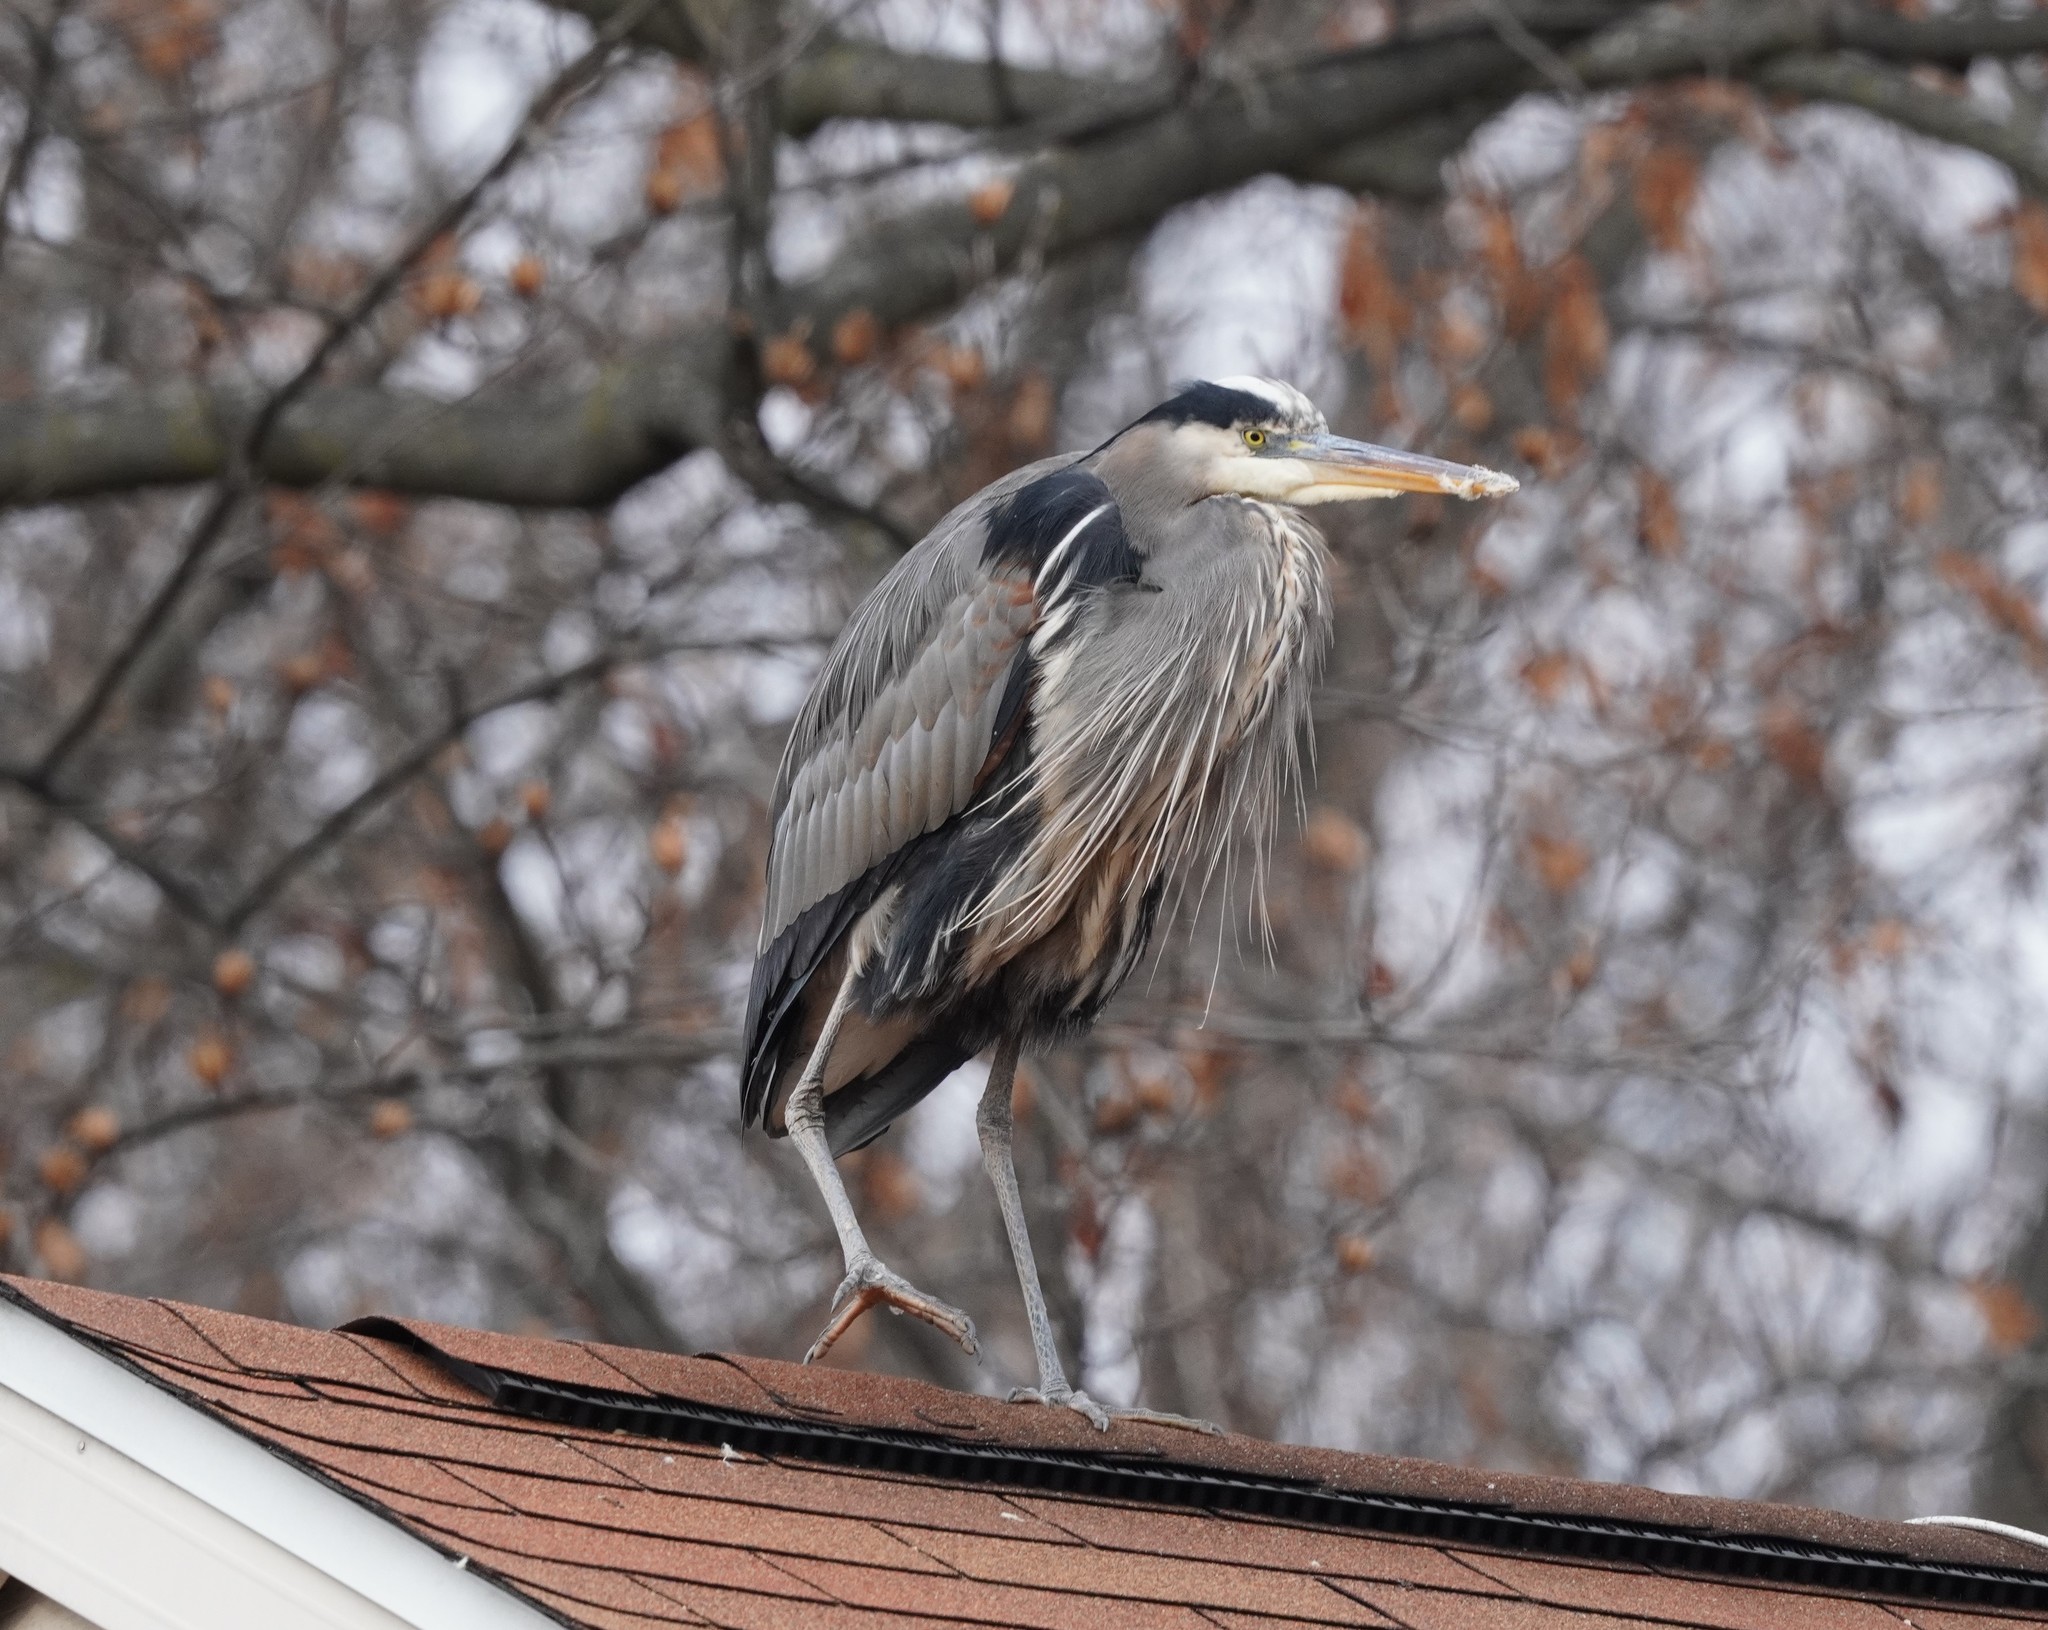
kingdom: Animalia
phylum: Chordata
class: Aves
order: Pelecaniformes
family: Ardeidae
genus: Ardea
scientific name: Ardea herodias
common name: Great blue heron
